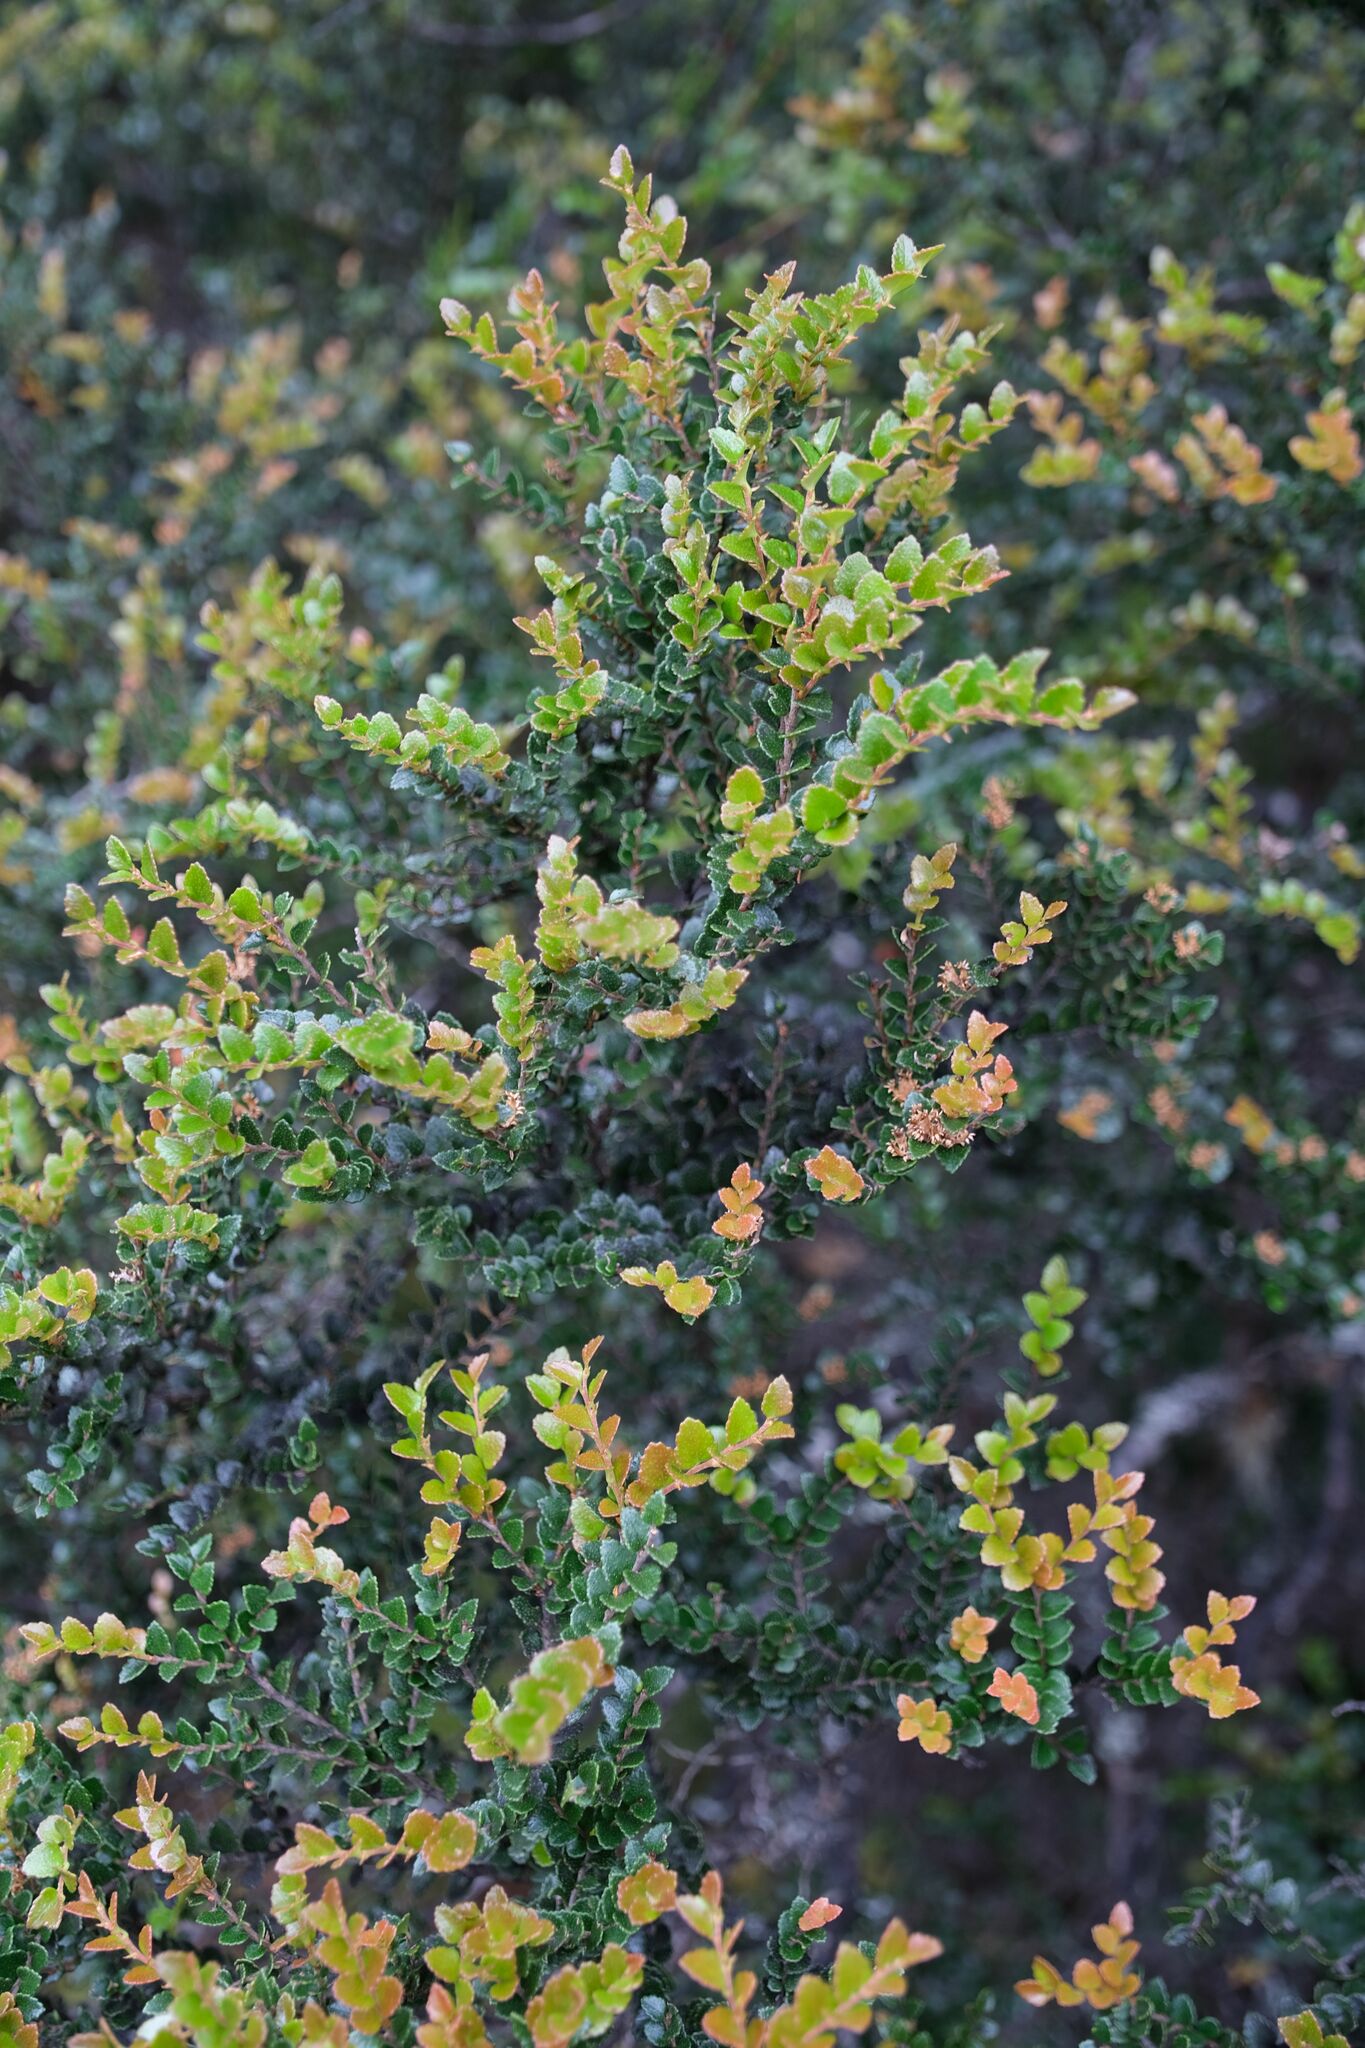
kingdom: Plantae
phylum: Tracheophyta
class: Magnoliopsida
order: Fagales
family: Nothofagaceae
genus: Nothofagus
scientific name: Nothofagus cunninghamii
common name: Myrtle beech
